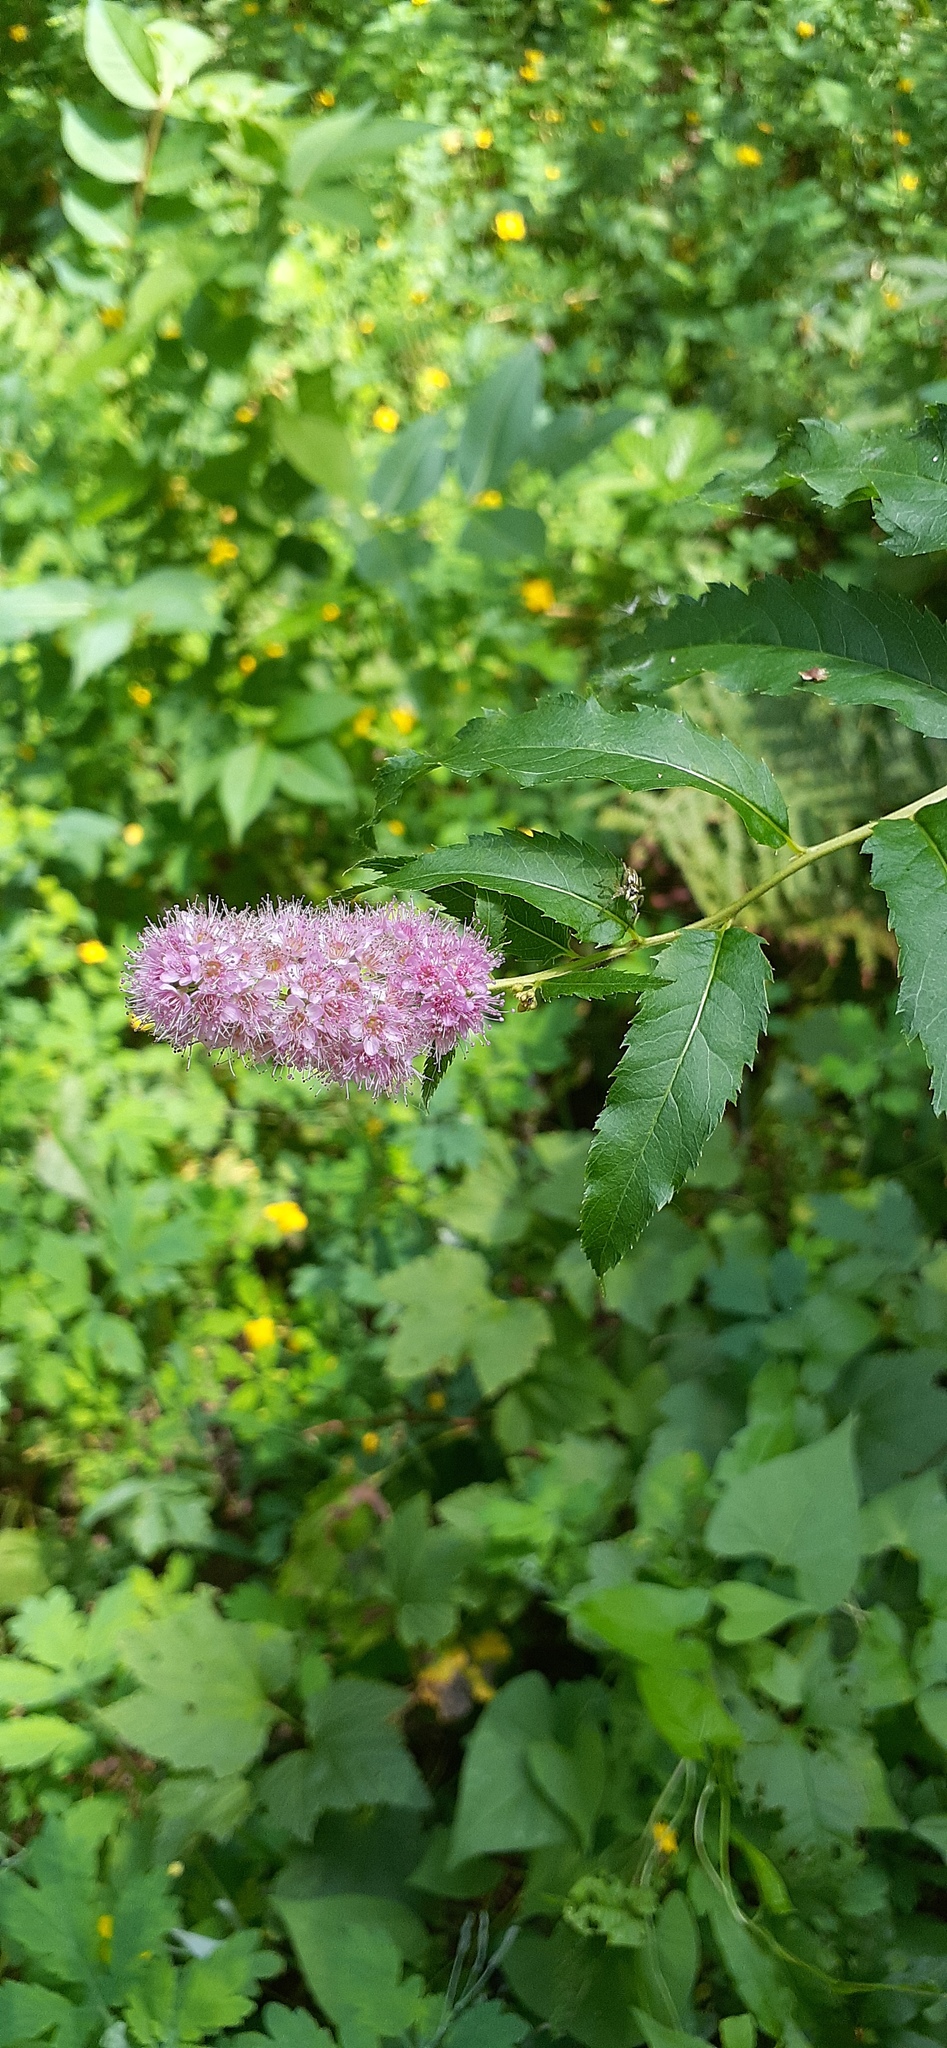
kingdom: Plantae
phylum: Tracheophyta
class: Magnoliopsida
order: Rosales
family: Rosaceae
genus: Spiraea
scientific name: Spiraea salicifolia
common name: Bridewort
